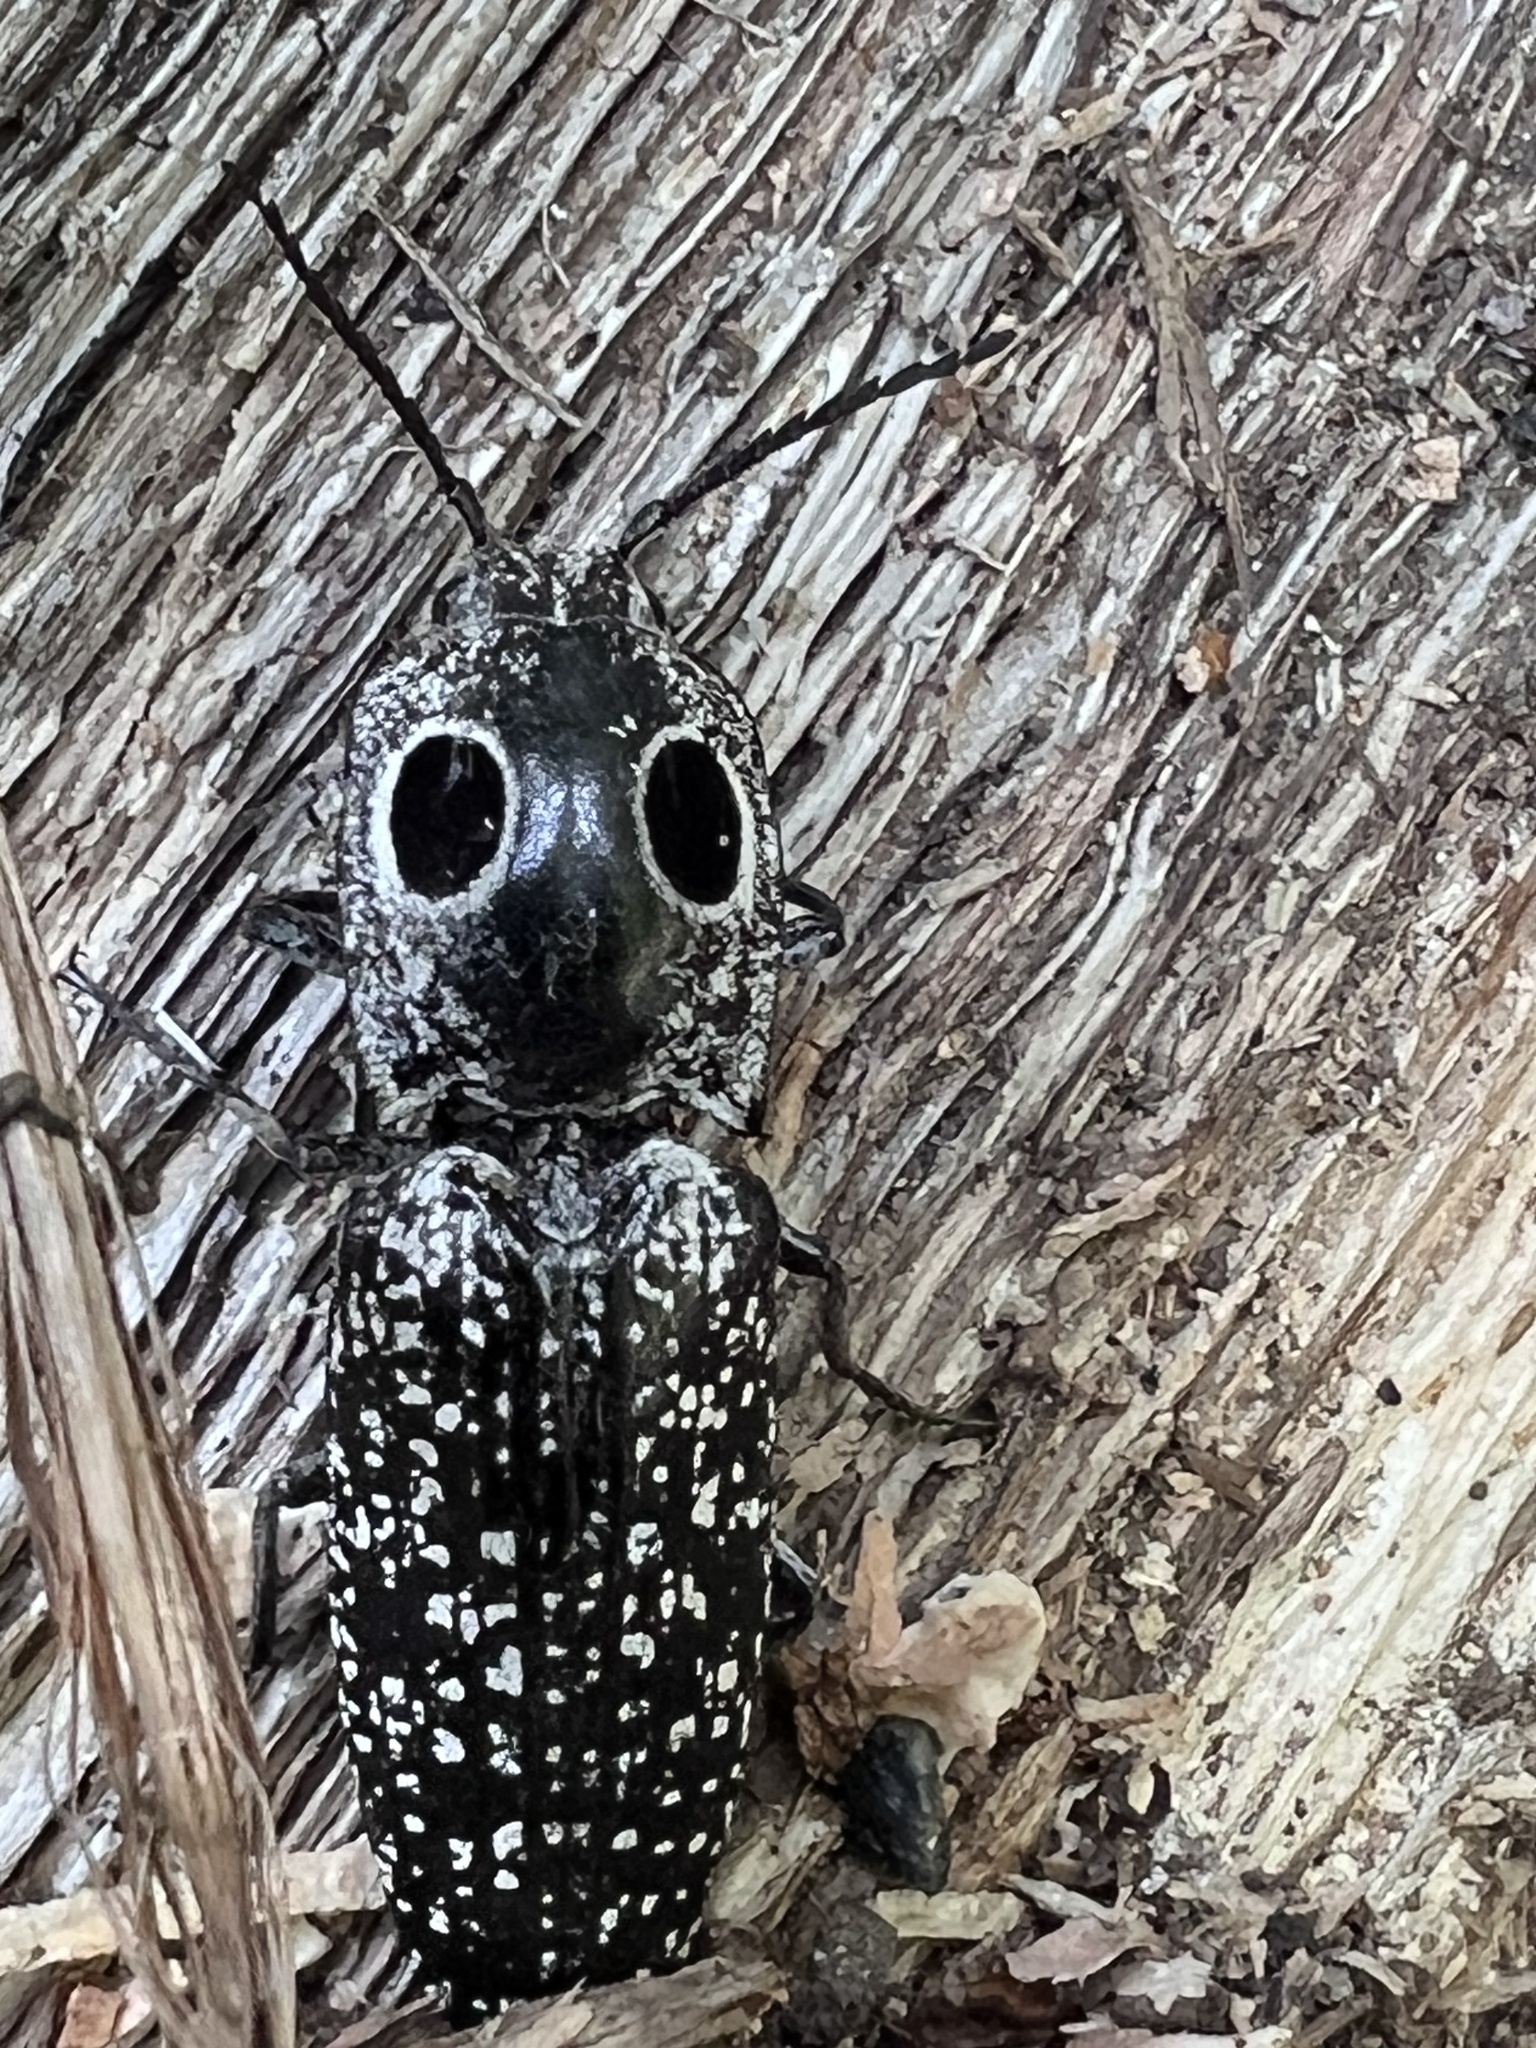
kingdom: Animalia
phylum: Arthropoda
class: Insecta
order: Coleoptera
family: Elateridae
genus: Alaus
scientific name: Alaus oculatus
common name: Eastern eyed click beetle
